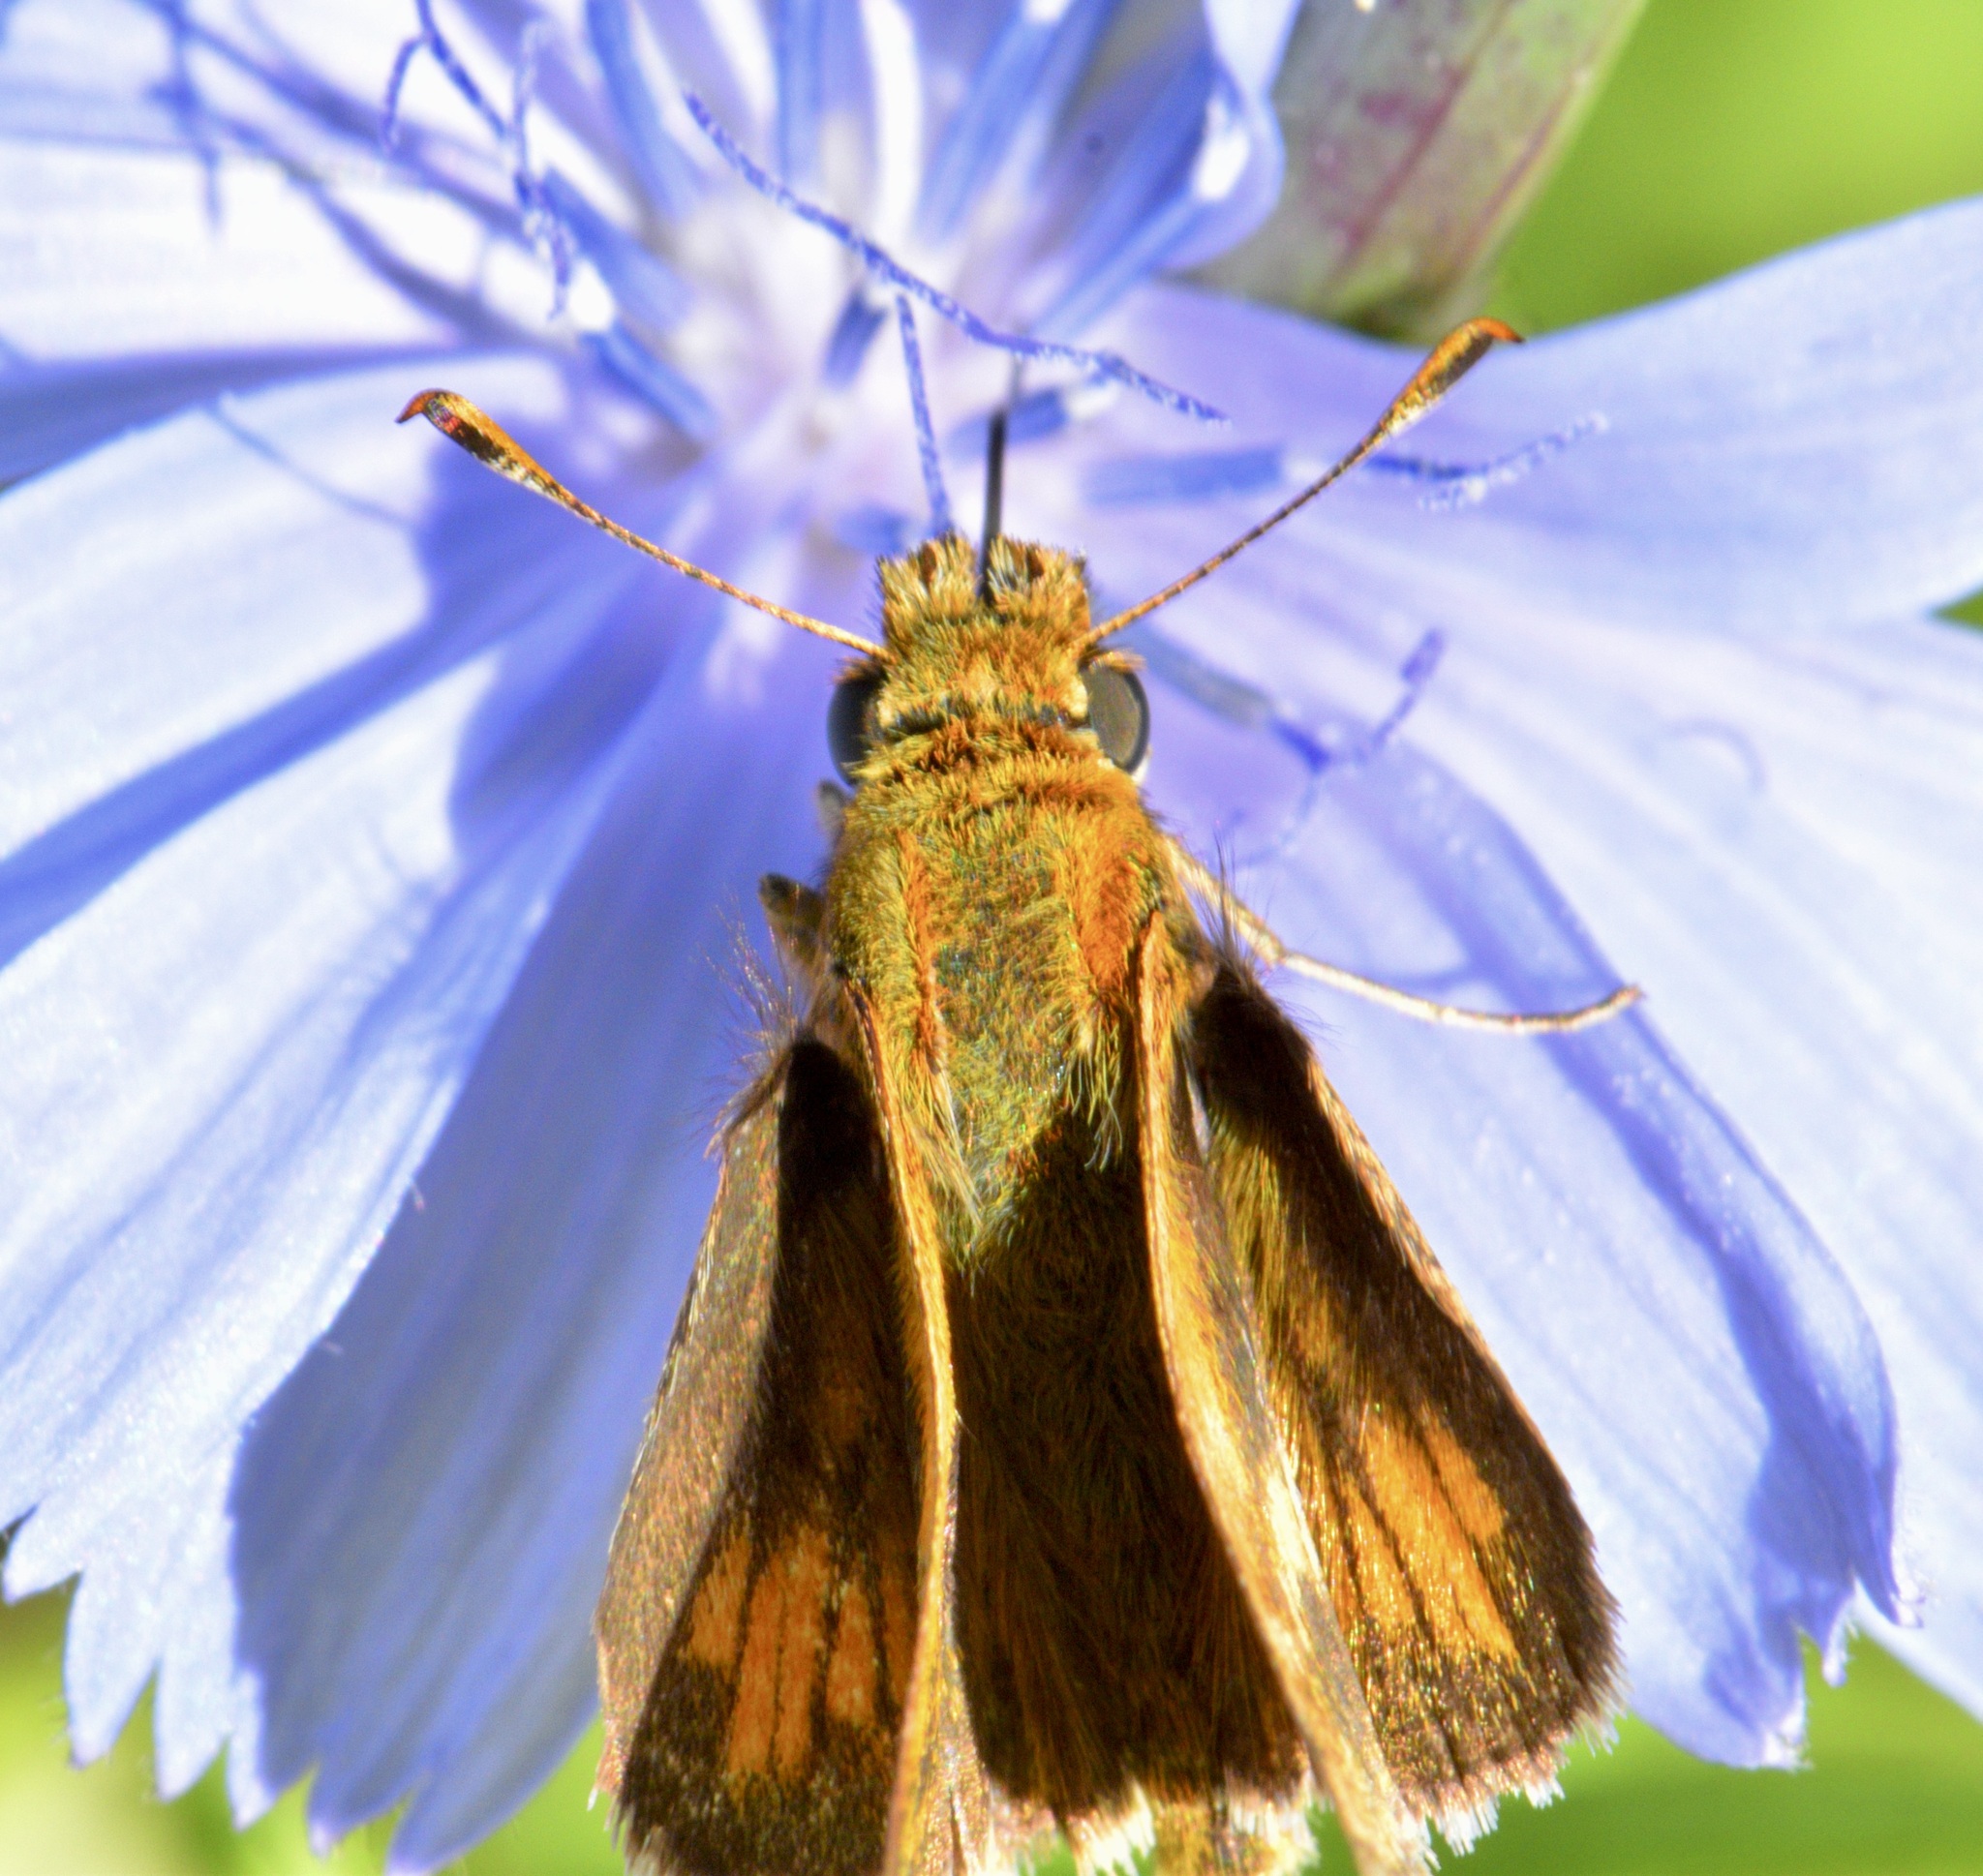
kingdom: Animalia
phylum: Arthropoda
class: Insecta
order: Lepidoptera
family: Hesperiidae
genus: Polites
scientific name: Polites coras
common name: Peck's skipper
